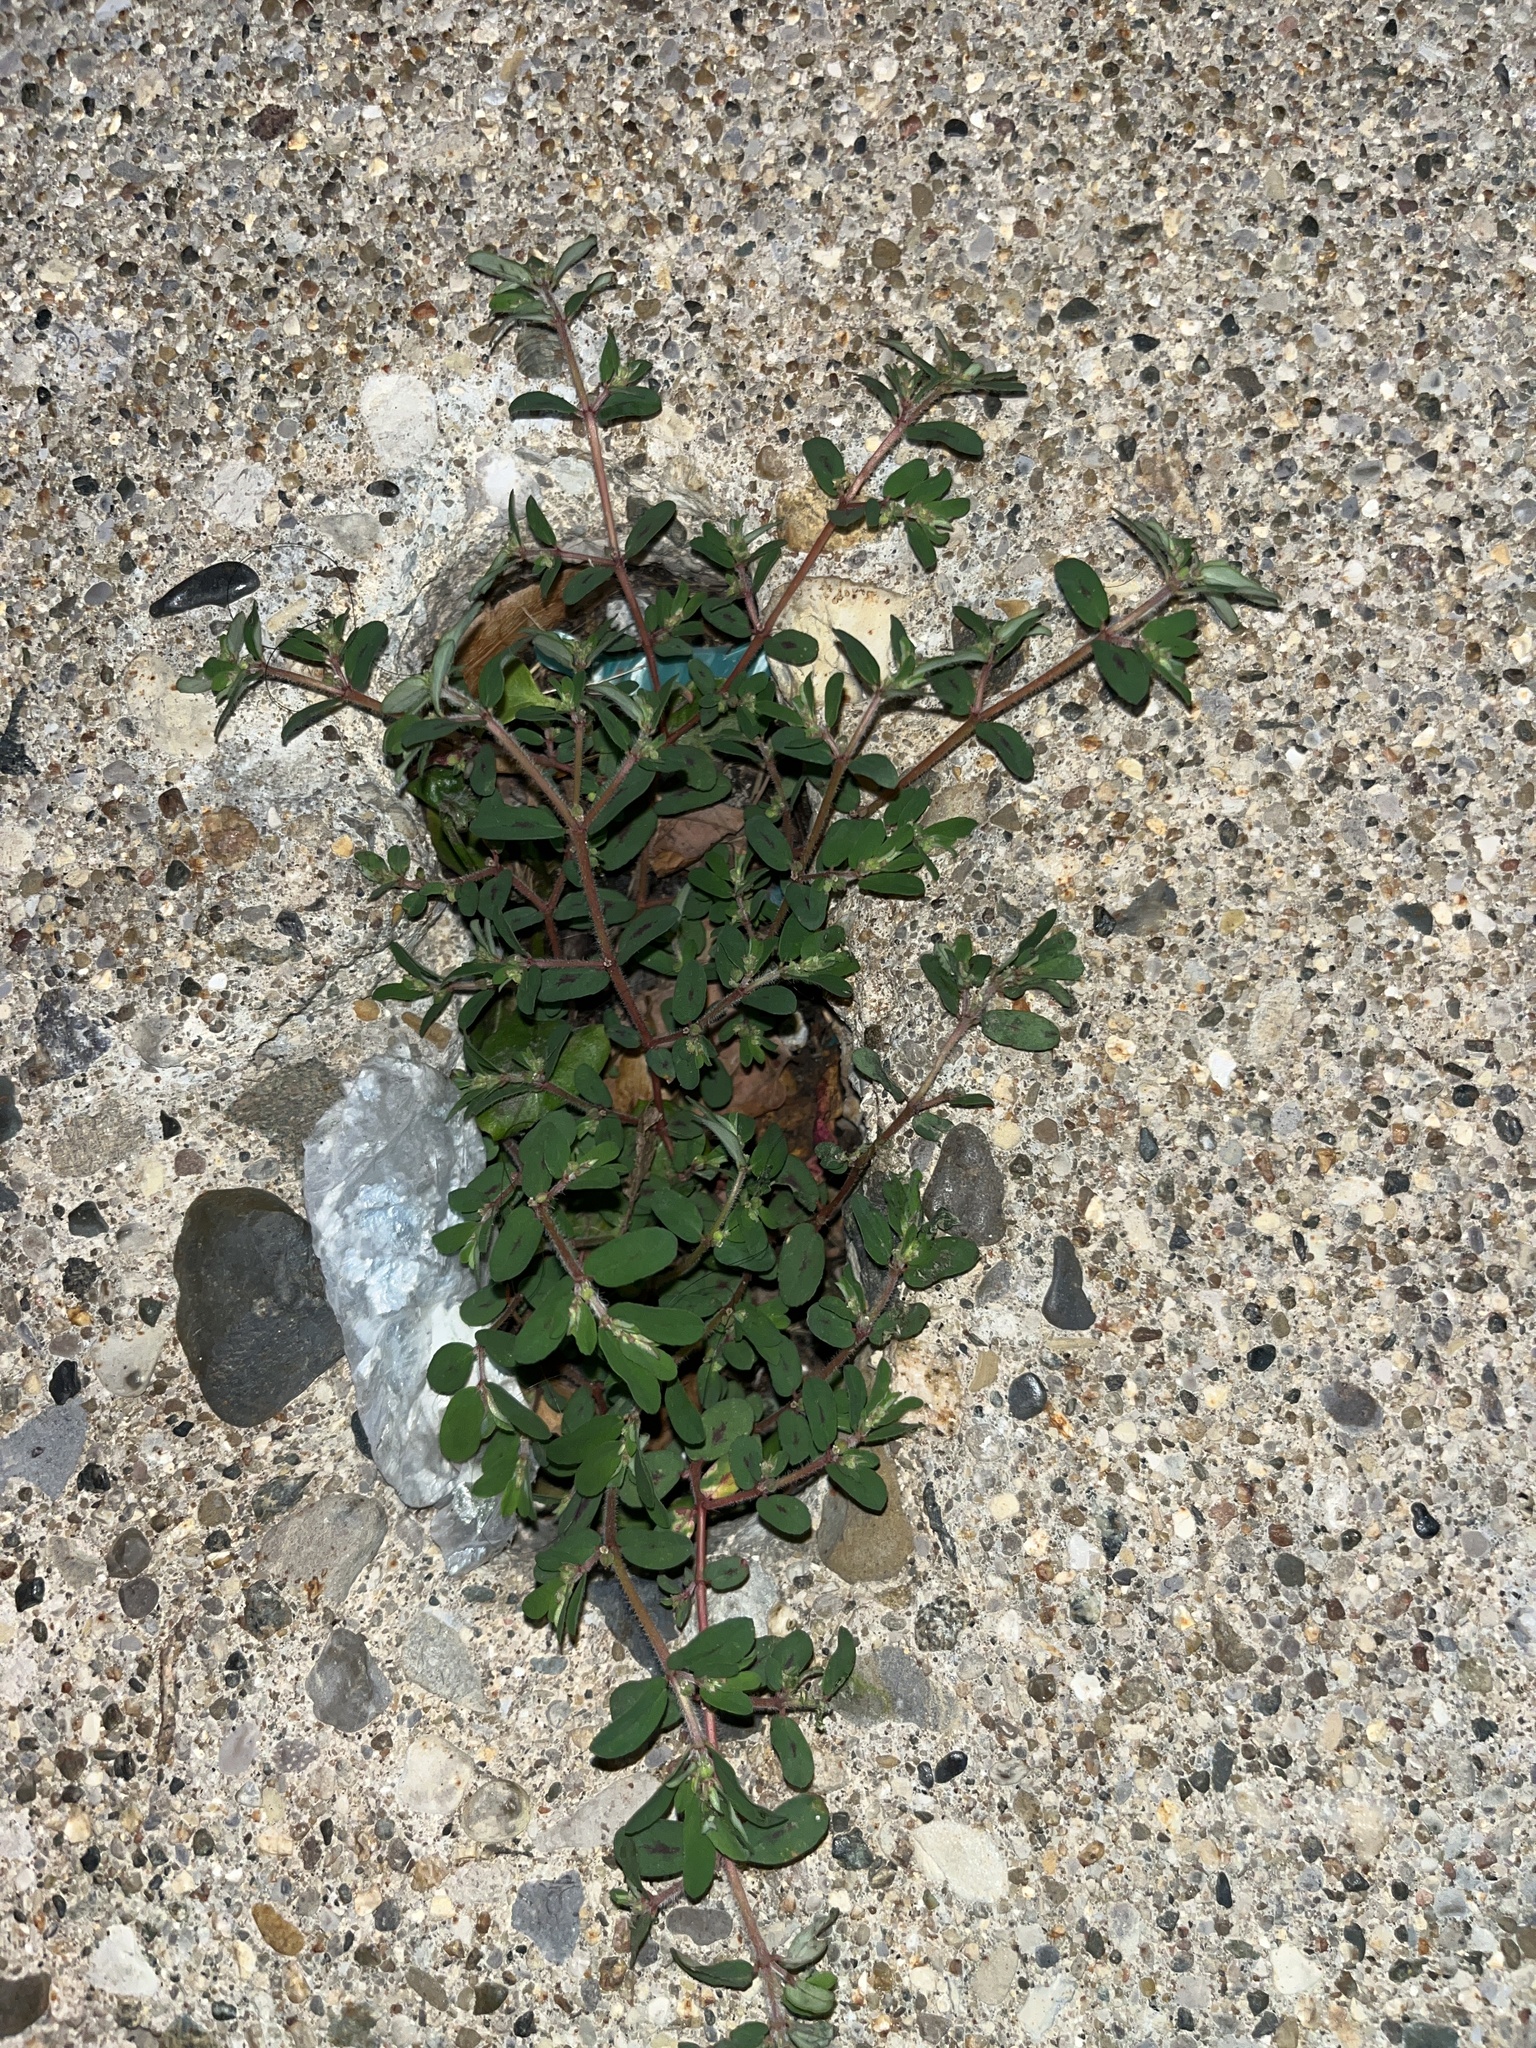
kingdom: Plantae
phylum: Tracheophyta
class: Magnoliopsida
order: Malpighiales
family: Euphorbiaceae
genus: Euphorbia
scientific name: Euphorbia maculata
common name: Spotted spurge
